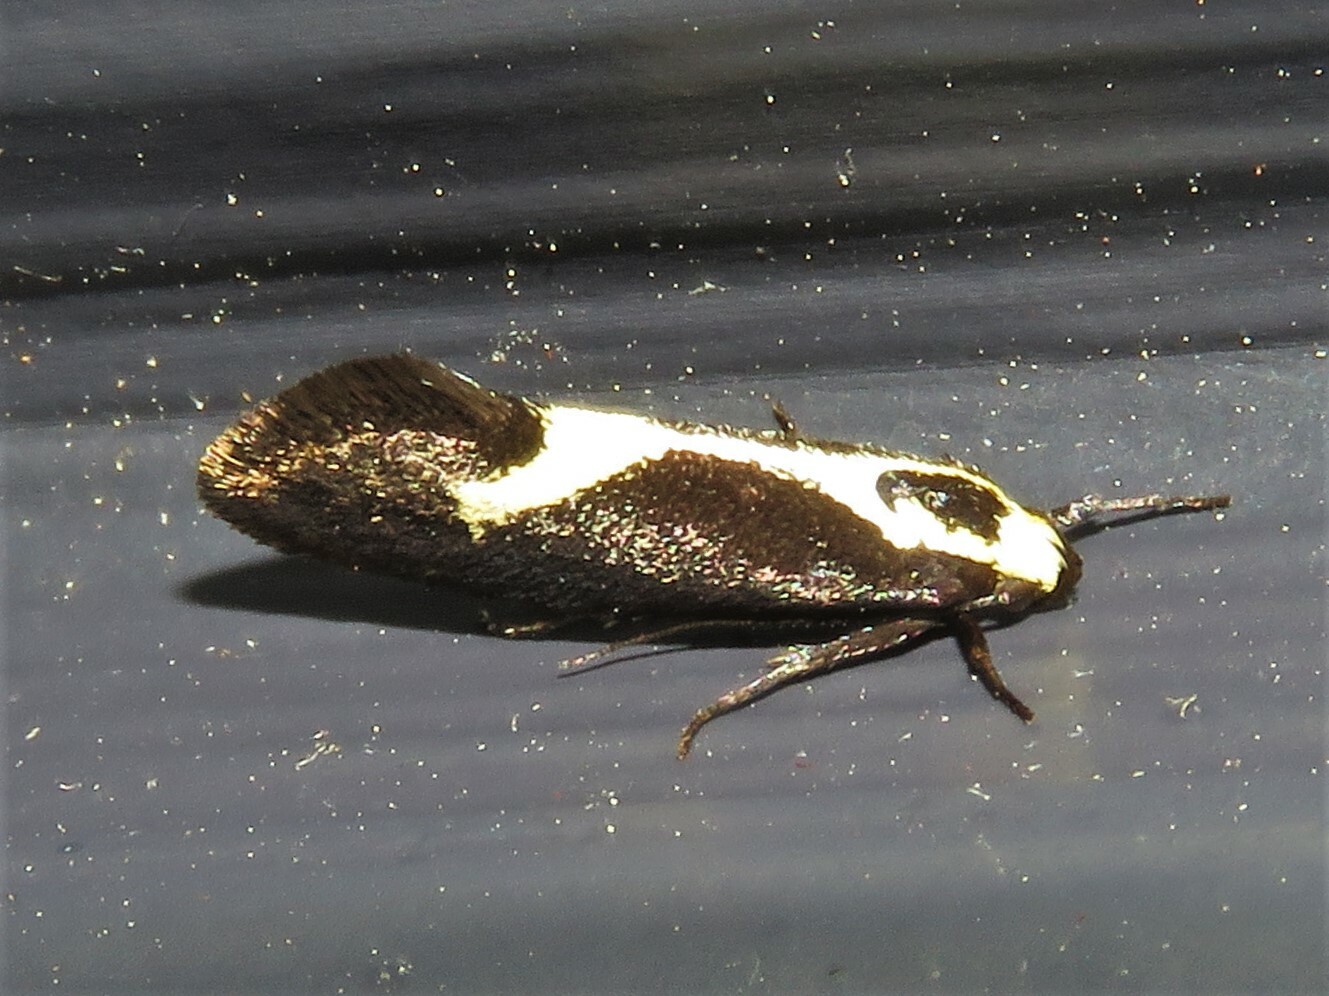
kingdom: Animalia
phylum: Arthropoda
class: Insecta
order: Lepidoptera
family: Oecophoridae
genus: Polix
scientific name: Polix coloradella
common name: Skunk moth
